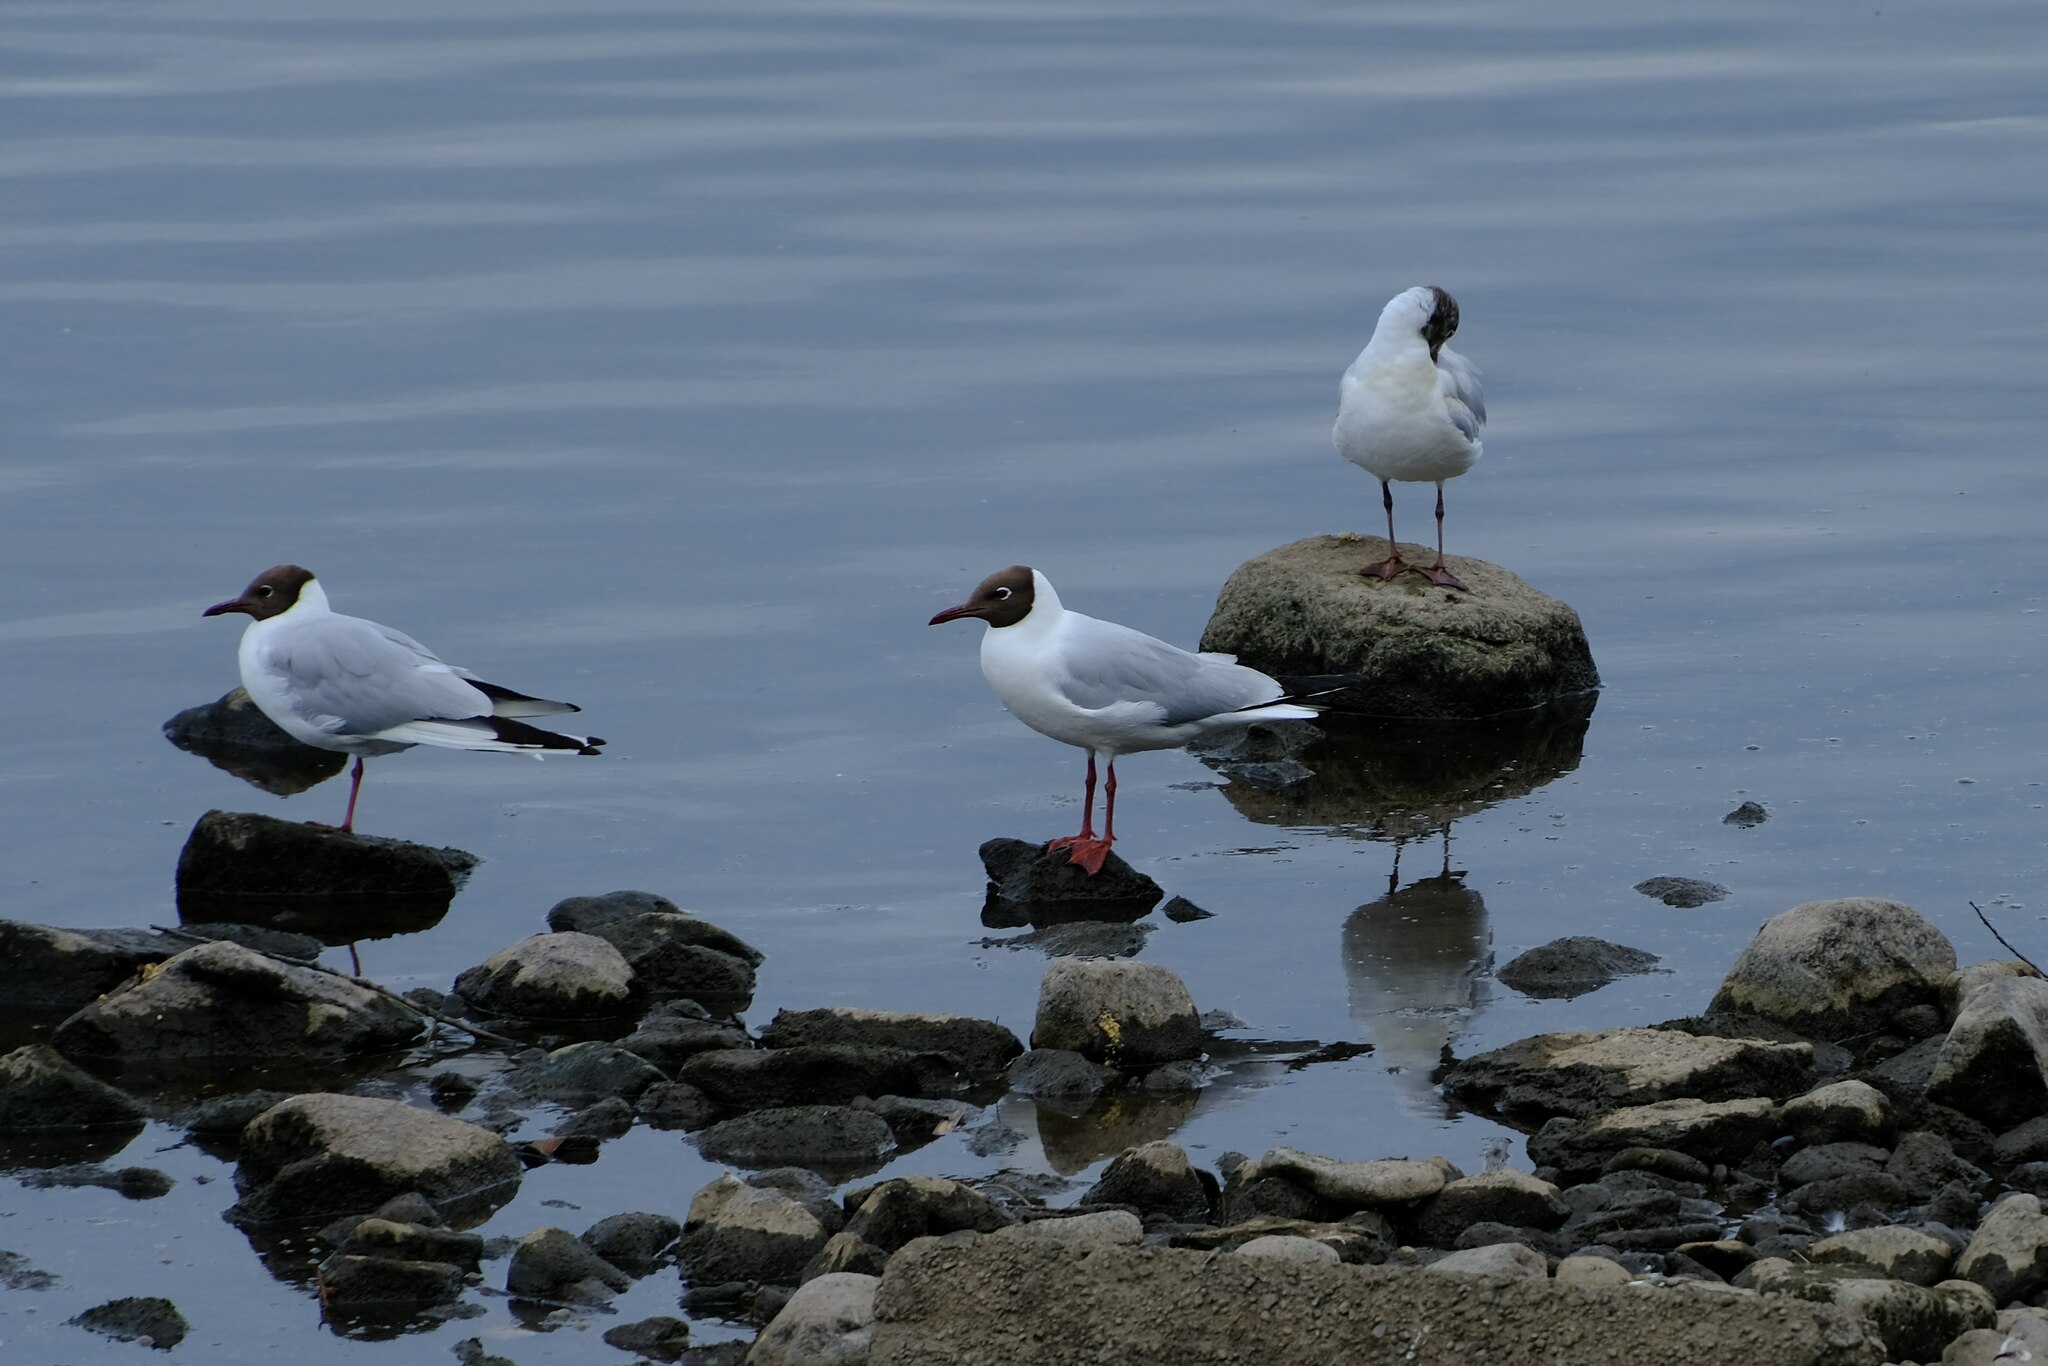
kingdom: Animalia
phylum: Chordata
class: Aves
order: Charadriiformes
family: Laridae
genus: Chroicocephalus
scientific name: Chroicocephalus ridibundus
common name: Black-headed gull
